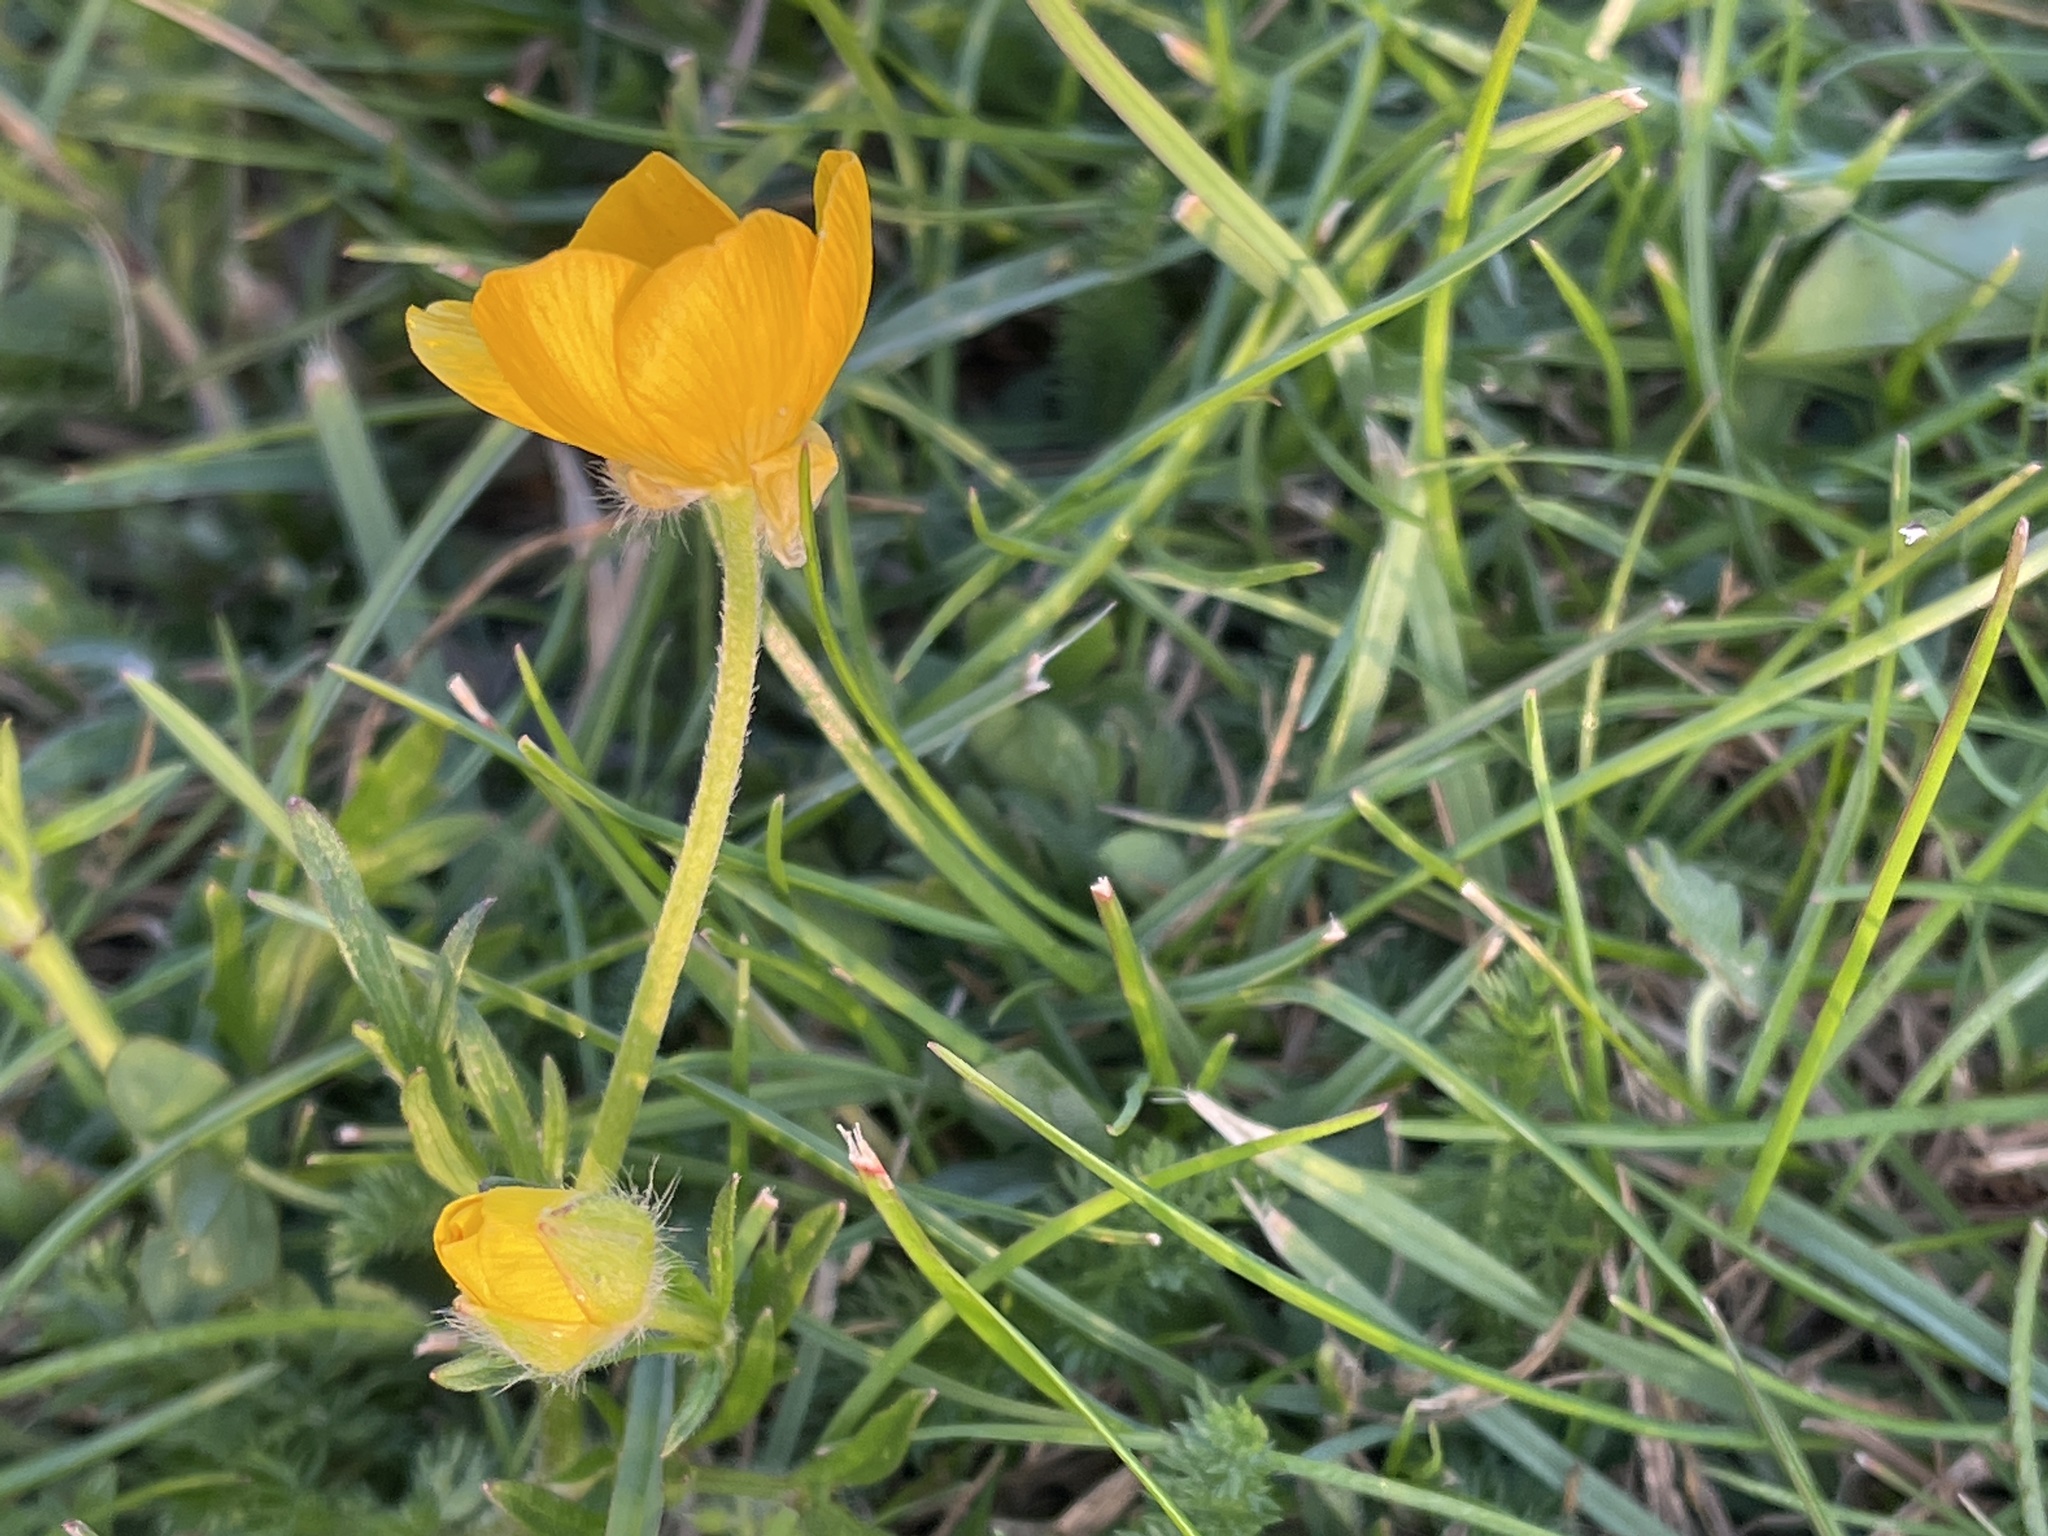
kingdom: Plantae
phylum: Tracheophyta
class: Magnoliopsida
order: Ranunculales
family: Ranunculaceae
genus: Ranunculus
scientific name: Ranunculus bulbosus
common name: Bulbous buttercup
